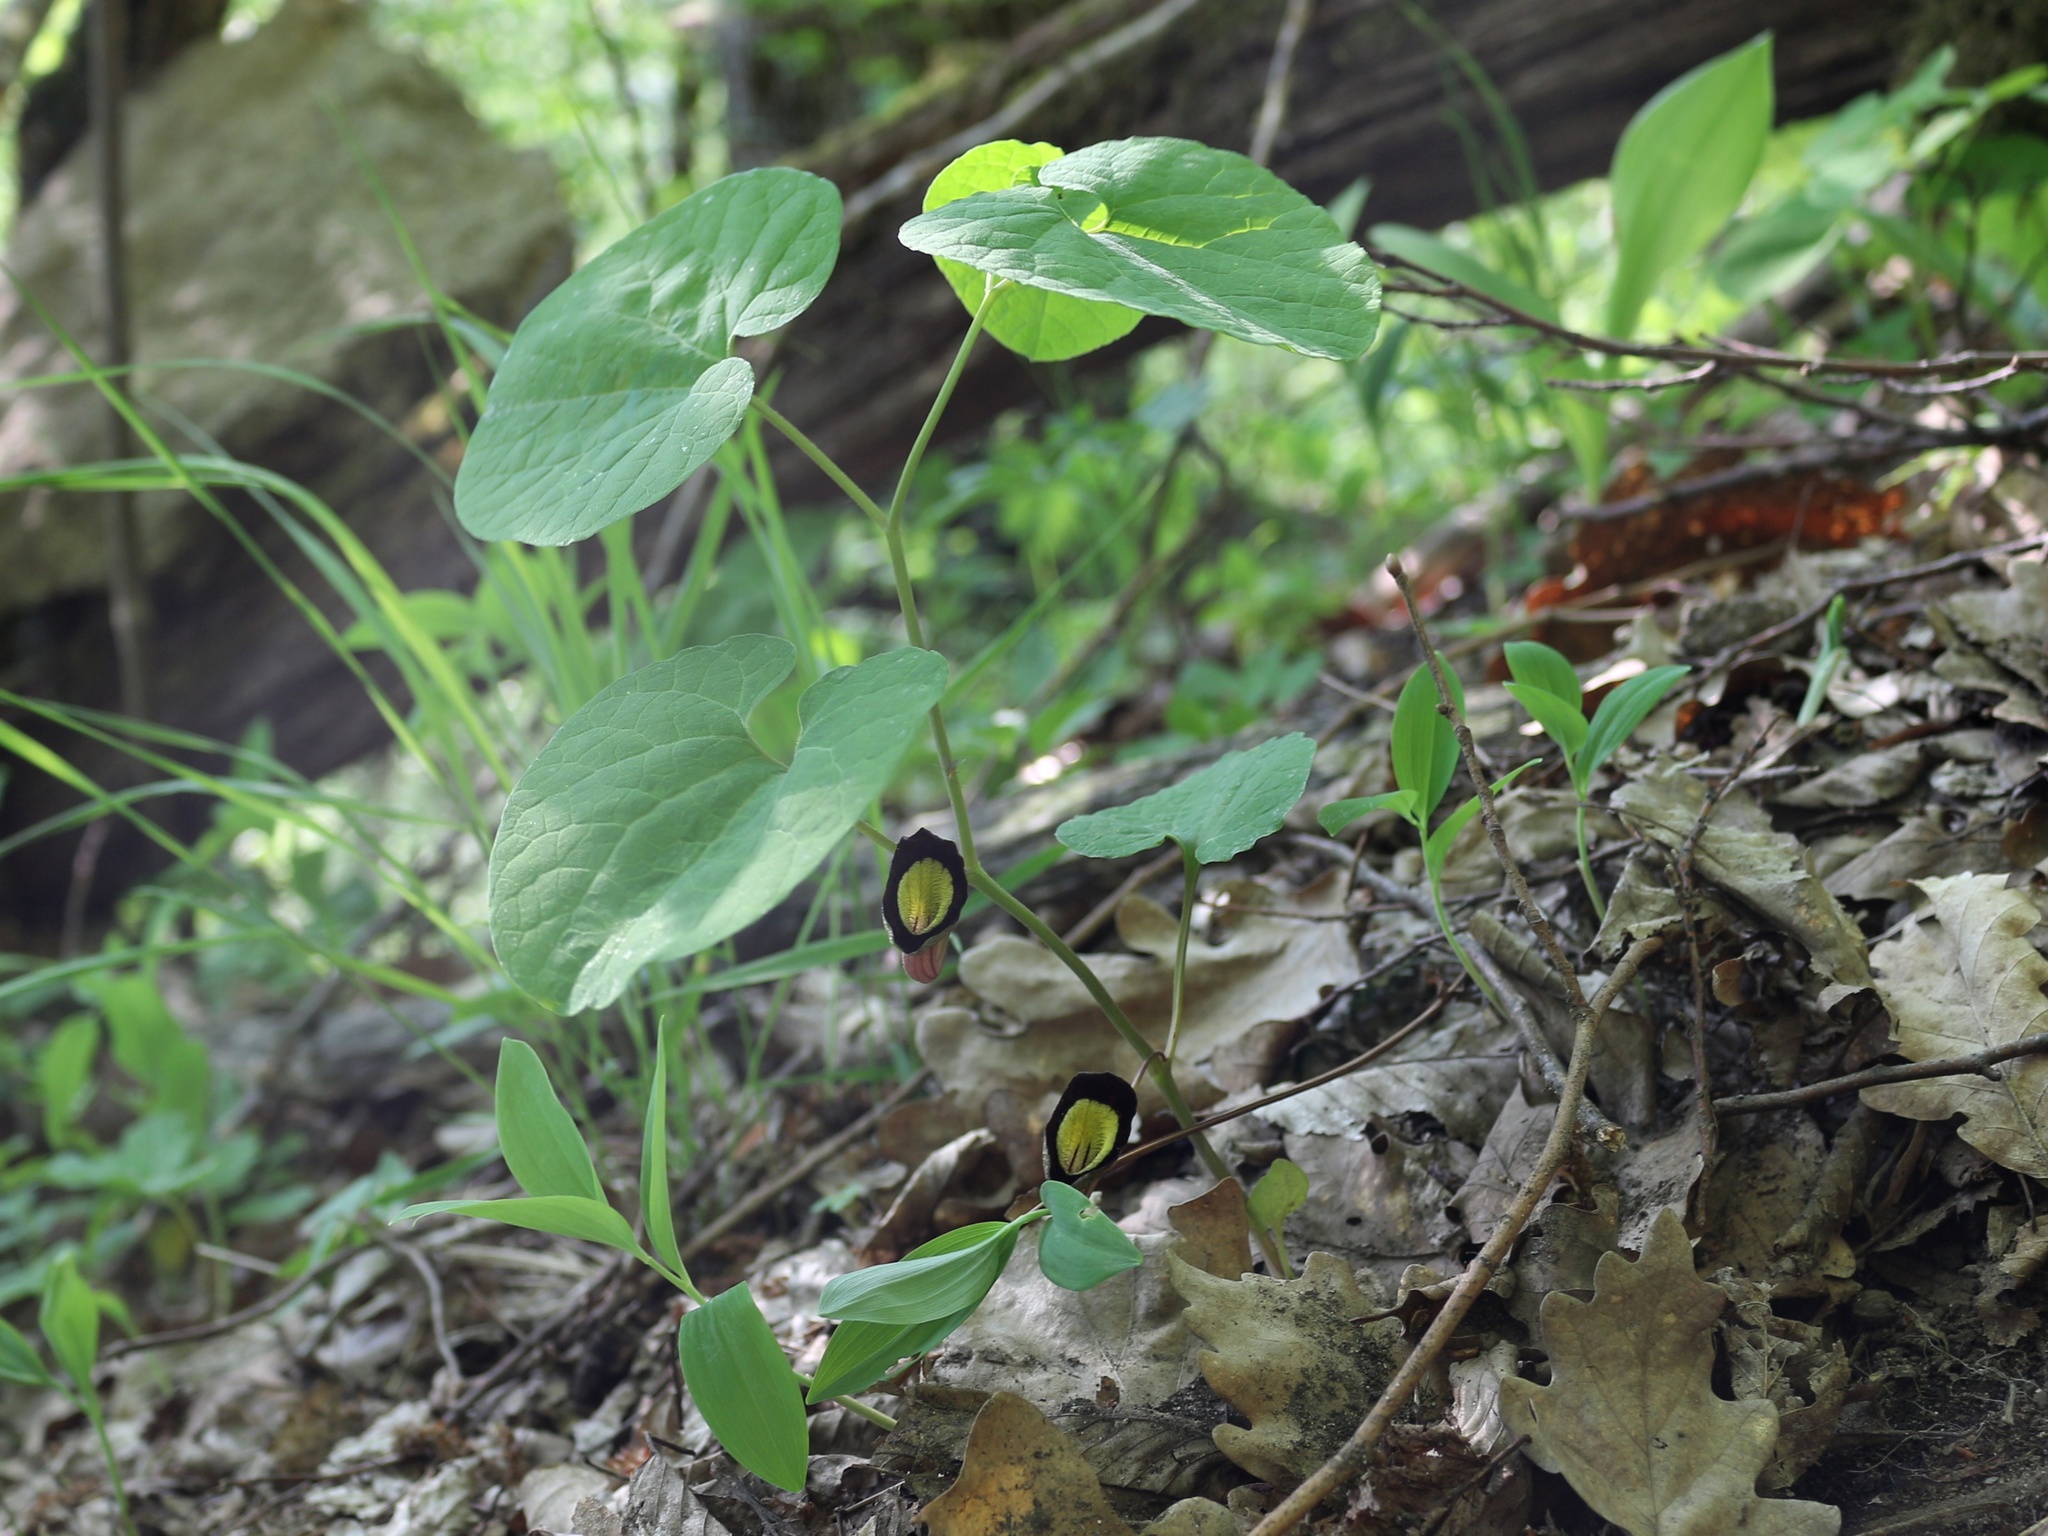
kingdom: Plantae
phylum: Tracheophyta
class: Magnoliopsida
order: Piperales
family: Aristolochiaceae
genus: Aristolochia
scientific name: Aristolochia steupii
